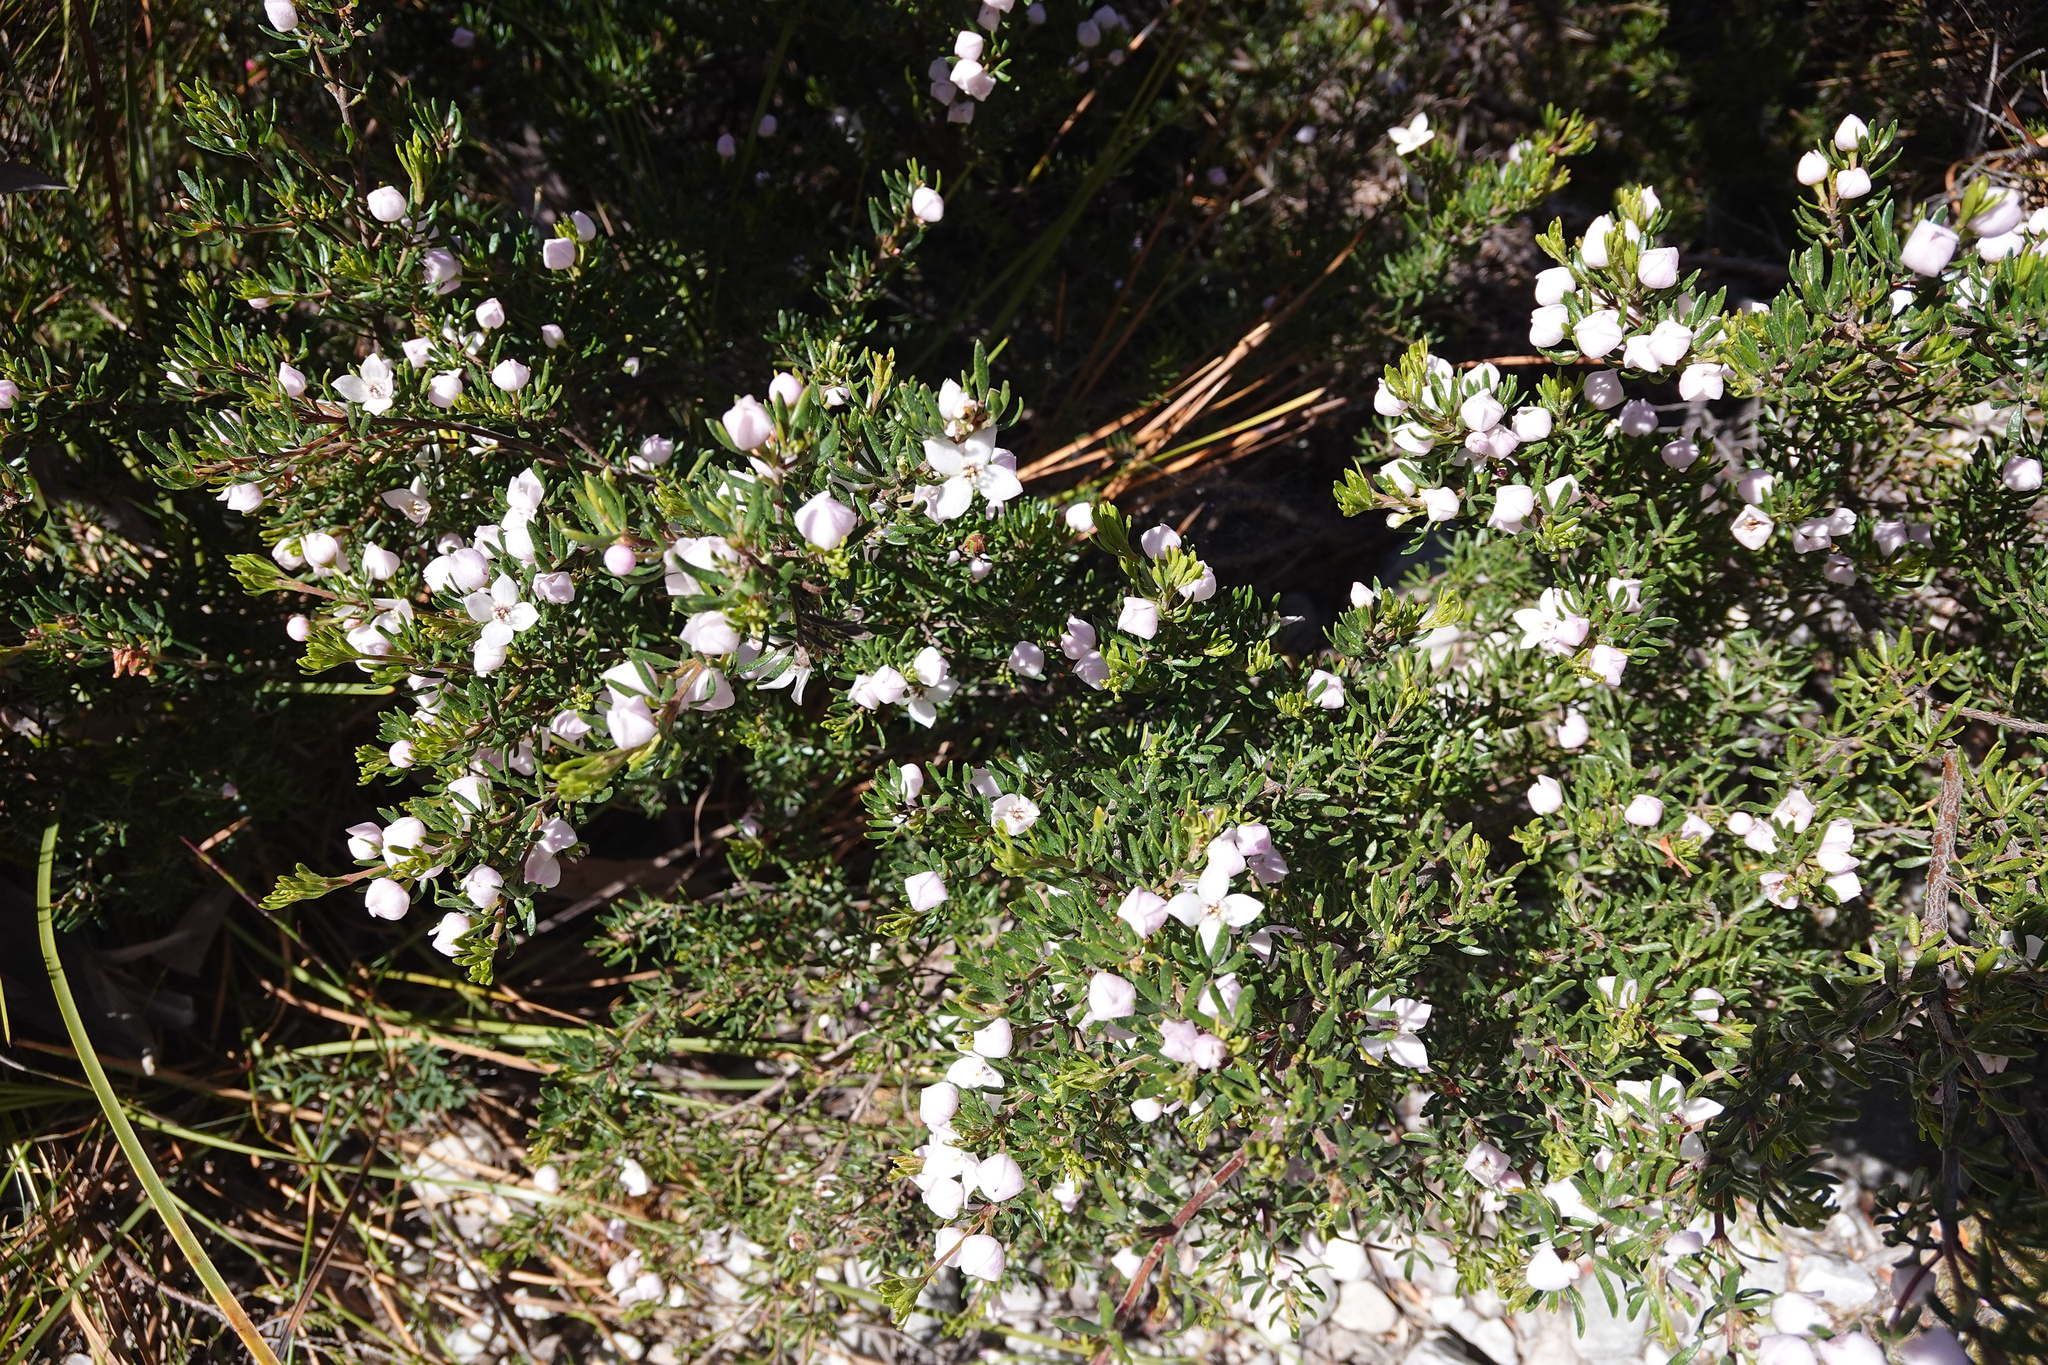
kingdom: Plantae
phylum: Tracheophyta
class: Magnoliopsida
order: Sapindales
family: Rutaceae
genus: Boronia
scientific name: Boronia citriodora
